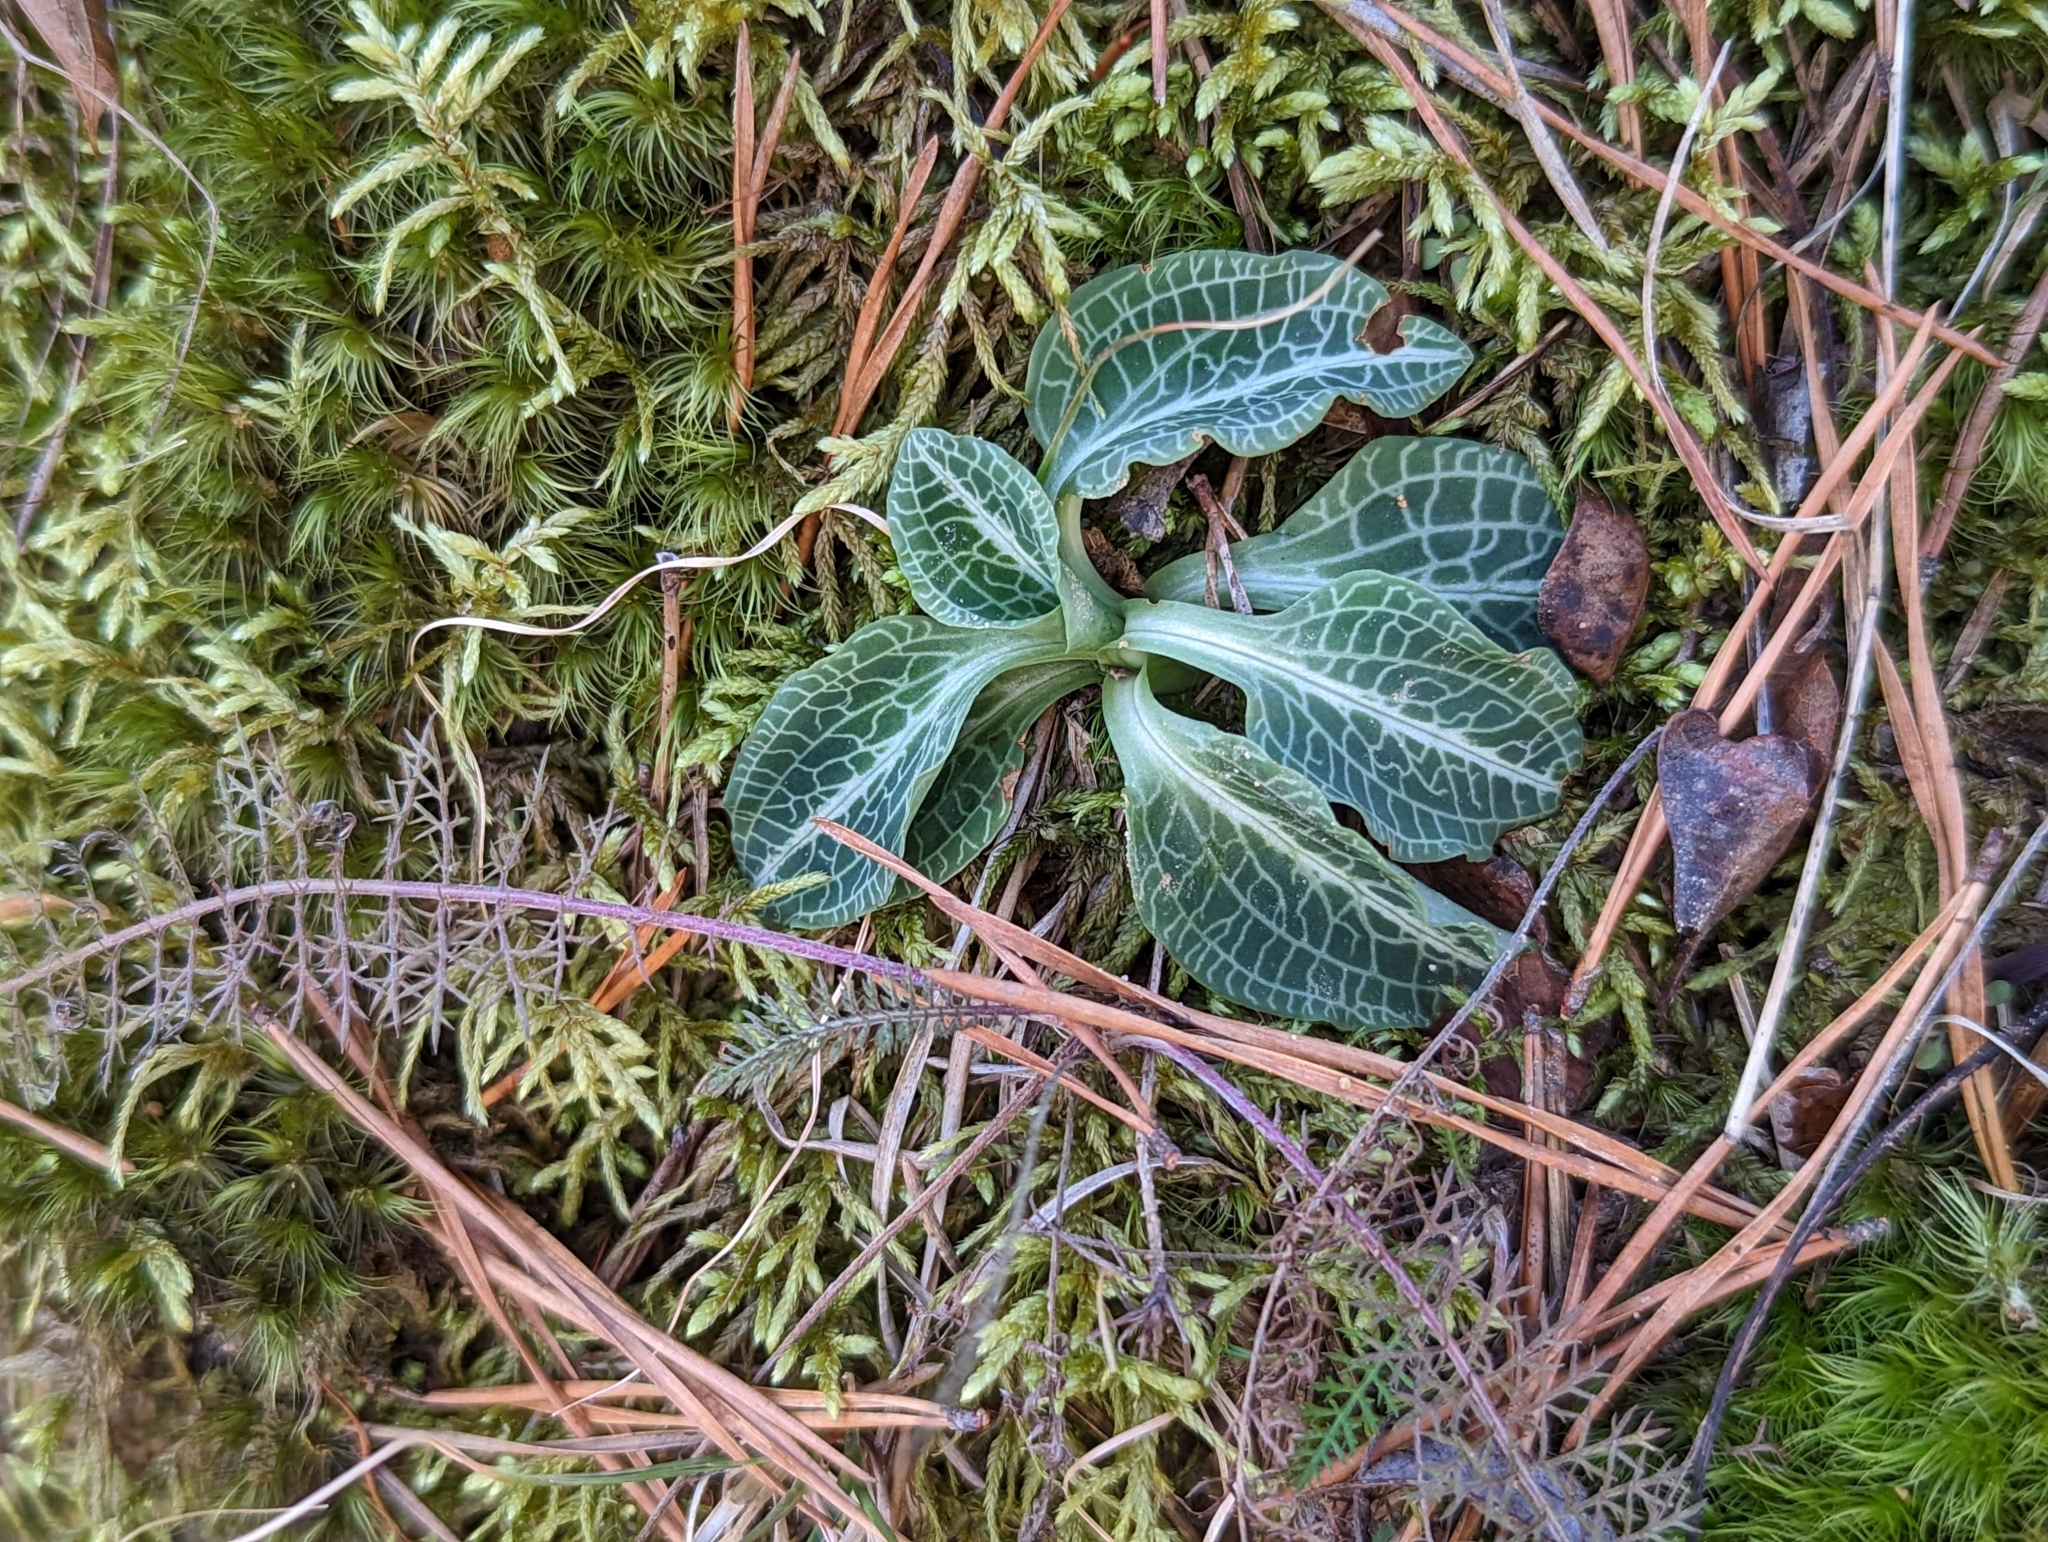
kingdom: Plantae
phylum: Tracheophyta
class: Liliopsida
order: Asparagales
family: Orchidaceae
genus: Goodyera
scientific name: Goodyera pubescens
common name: Downy rattlesnake-plantain
